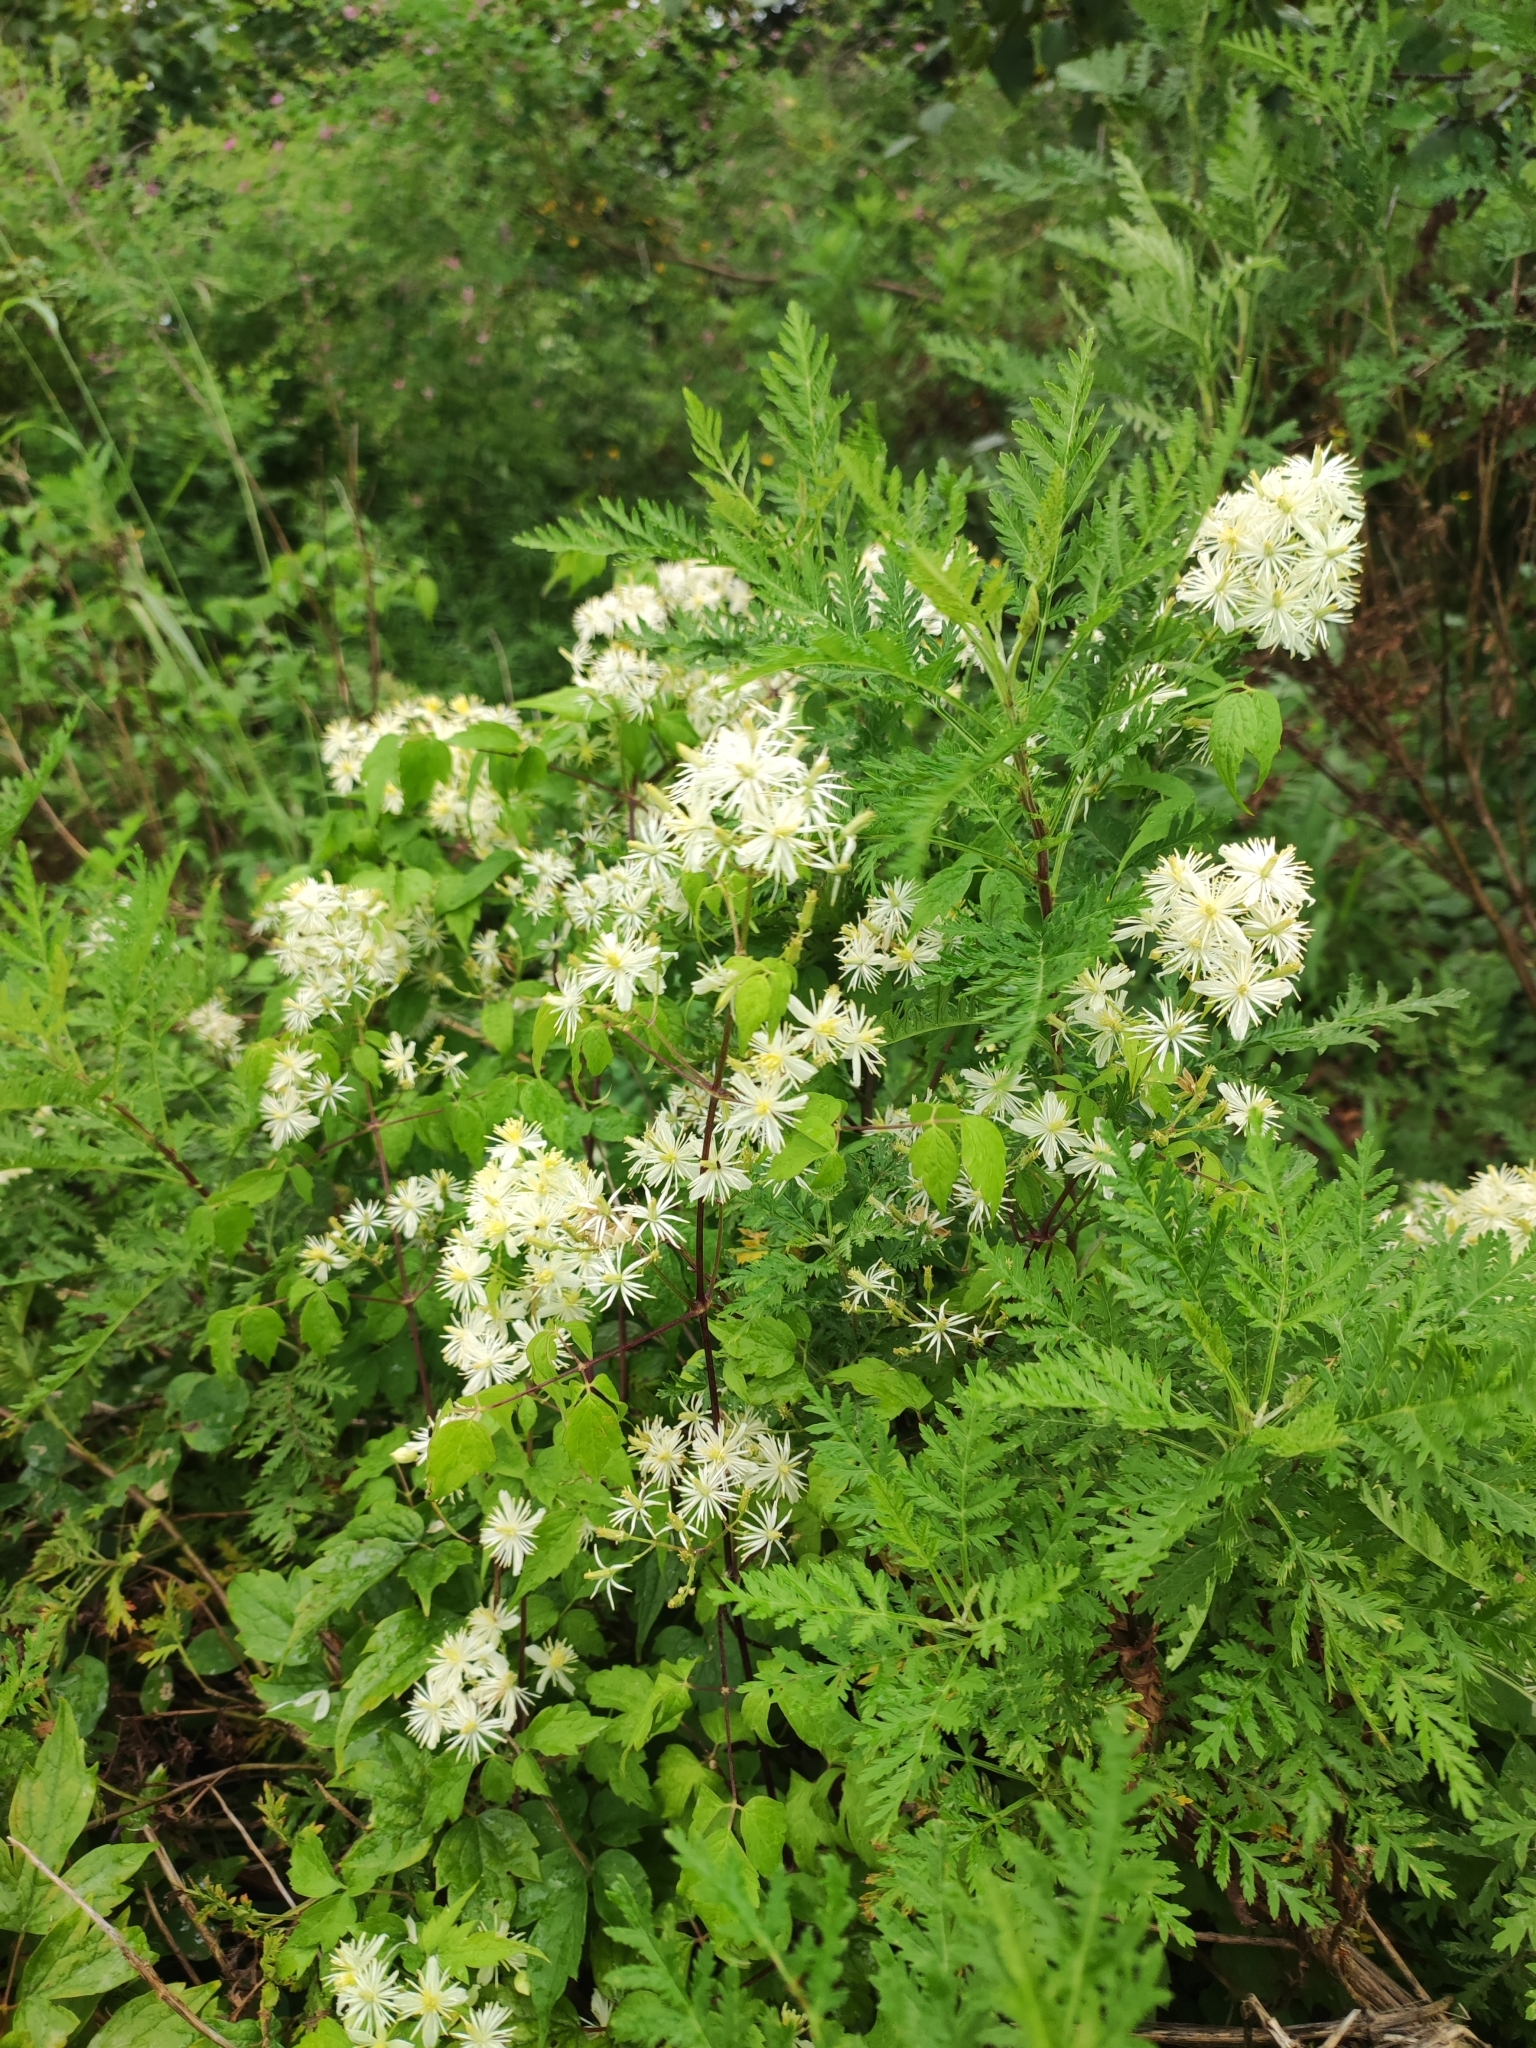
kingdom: Plantae
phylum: Tracheophyta
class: Magnoliopsida
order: Ranunculales
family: Ranunculaceae
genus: Clematis
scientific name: Clematis brevicaudata
